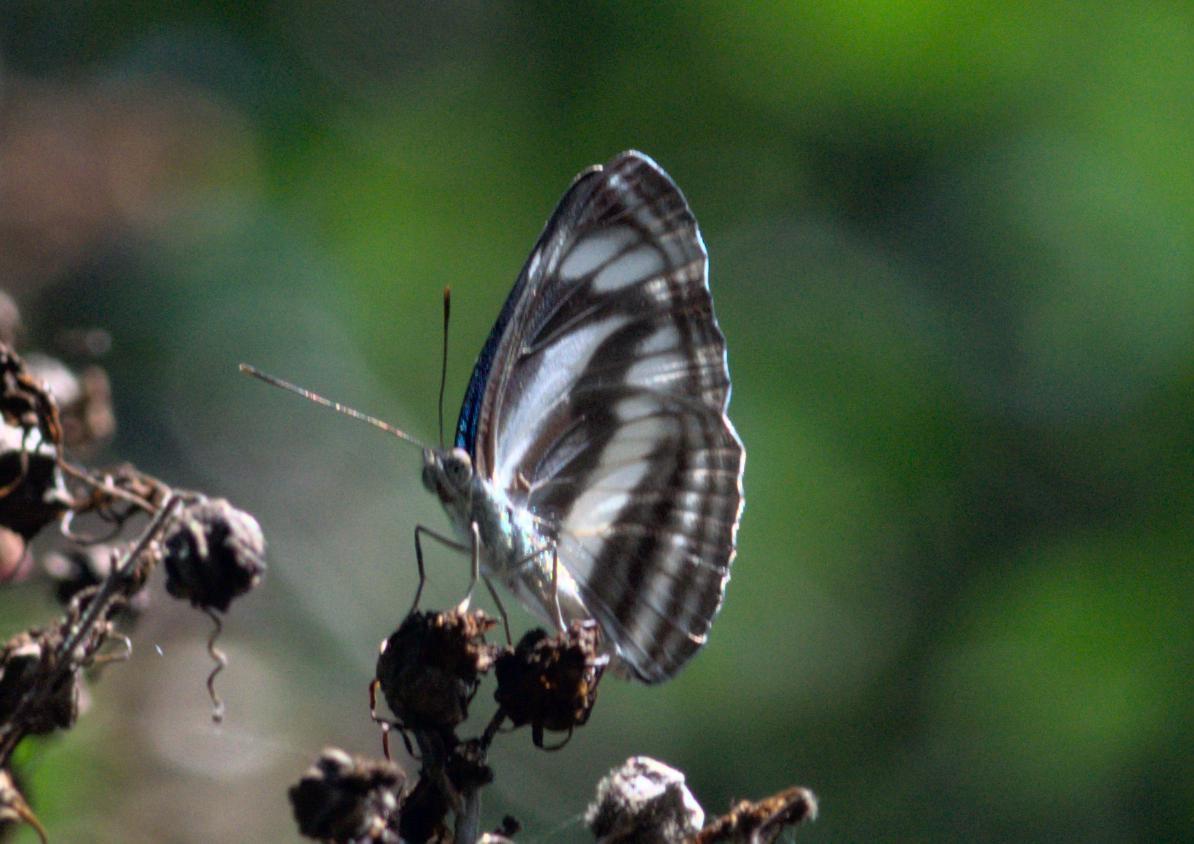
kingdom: Animalia
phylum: Arthropoda
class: Insecta
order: Lepidoptera
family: Nymphalidae
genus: Neptis
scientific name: Neptis sankara
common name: Broad-banded sailer
